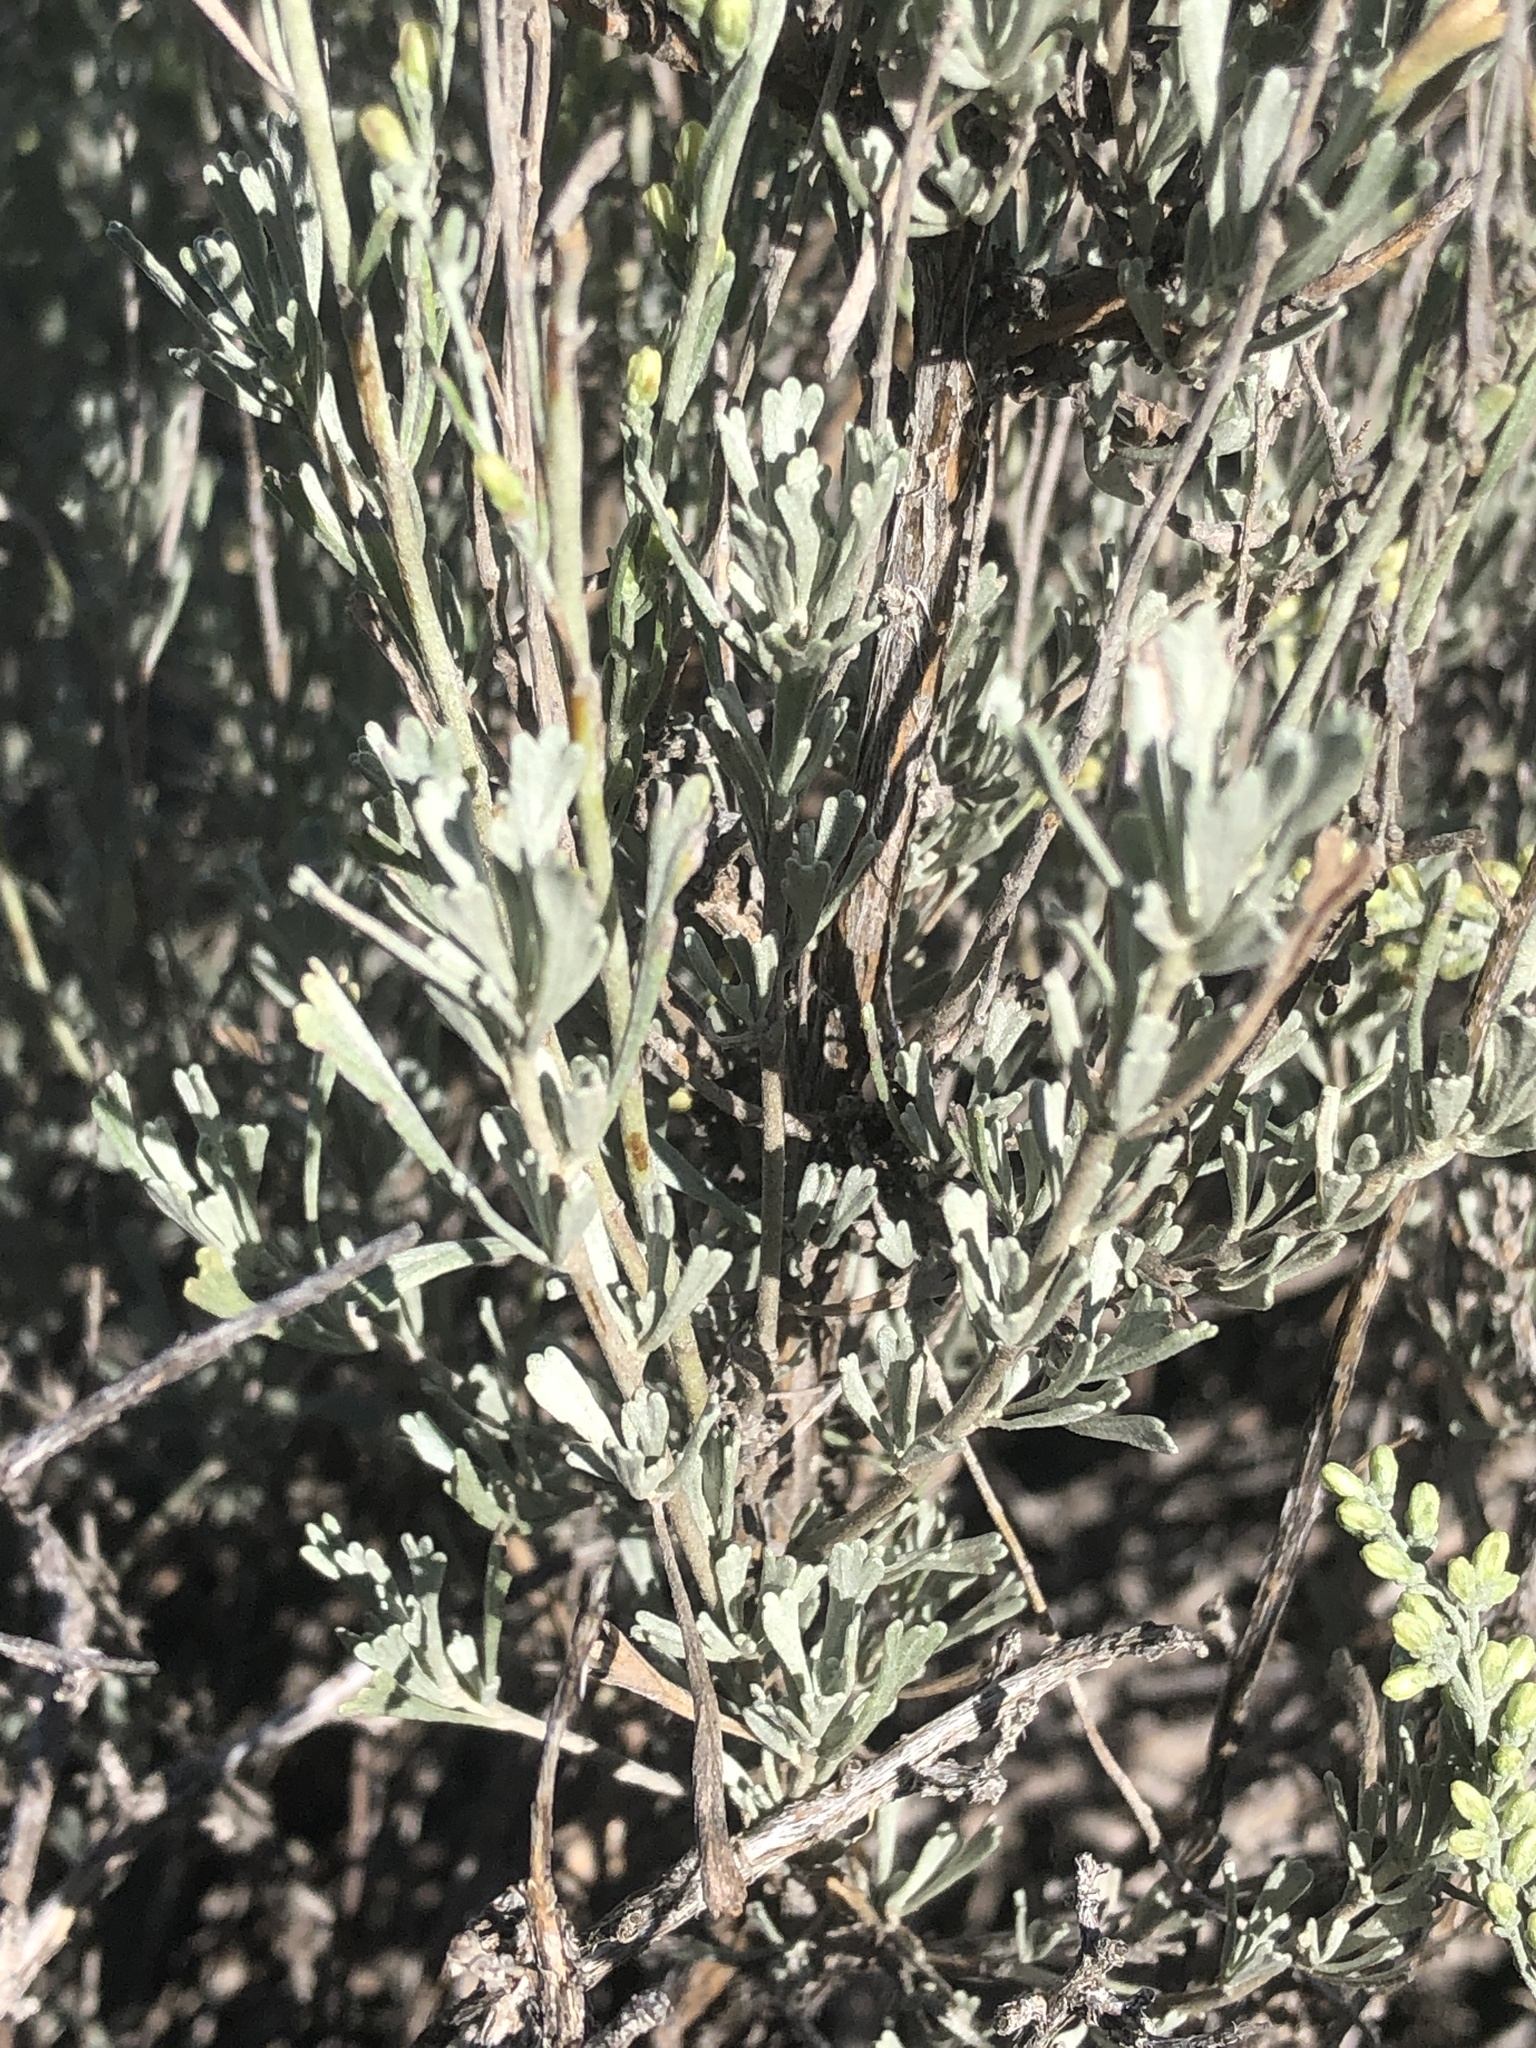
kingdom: Plantae
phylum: Tracheophyta
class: Magnoliopsida
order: Asterales
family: Asteraceae
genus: Artemisia
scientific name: Artemisia tridentata
